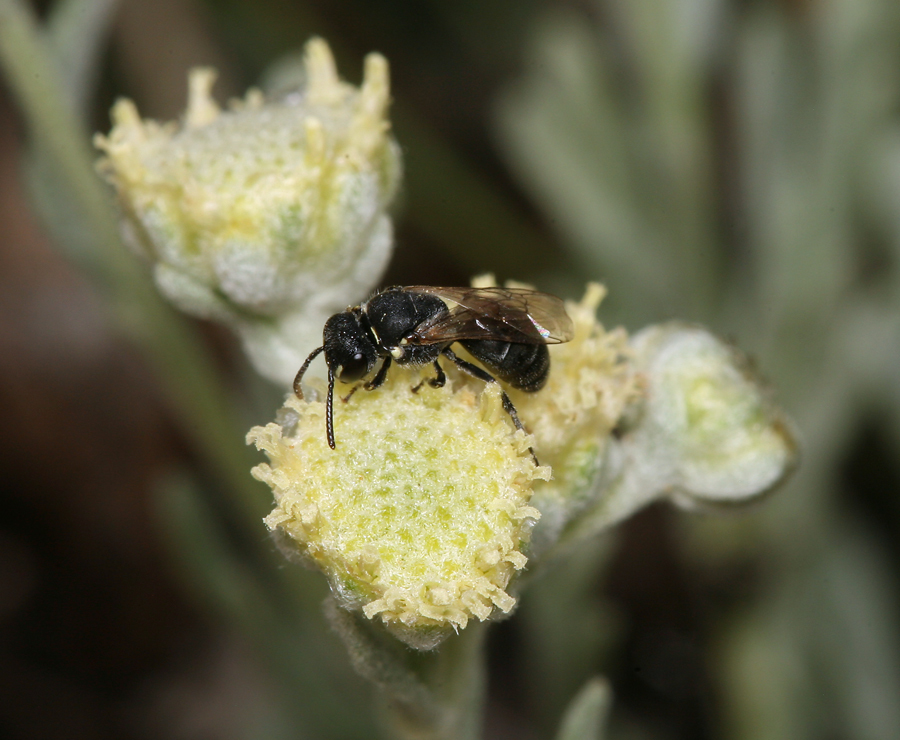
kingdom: Plantae
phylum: Tracheophyta
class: Magnoliopsida
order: Asterales
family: Asteraceae
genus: Artemisia
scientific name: Artemisia albicans
